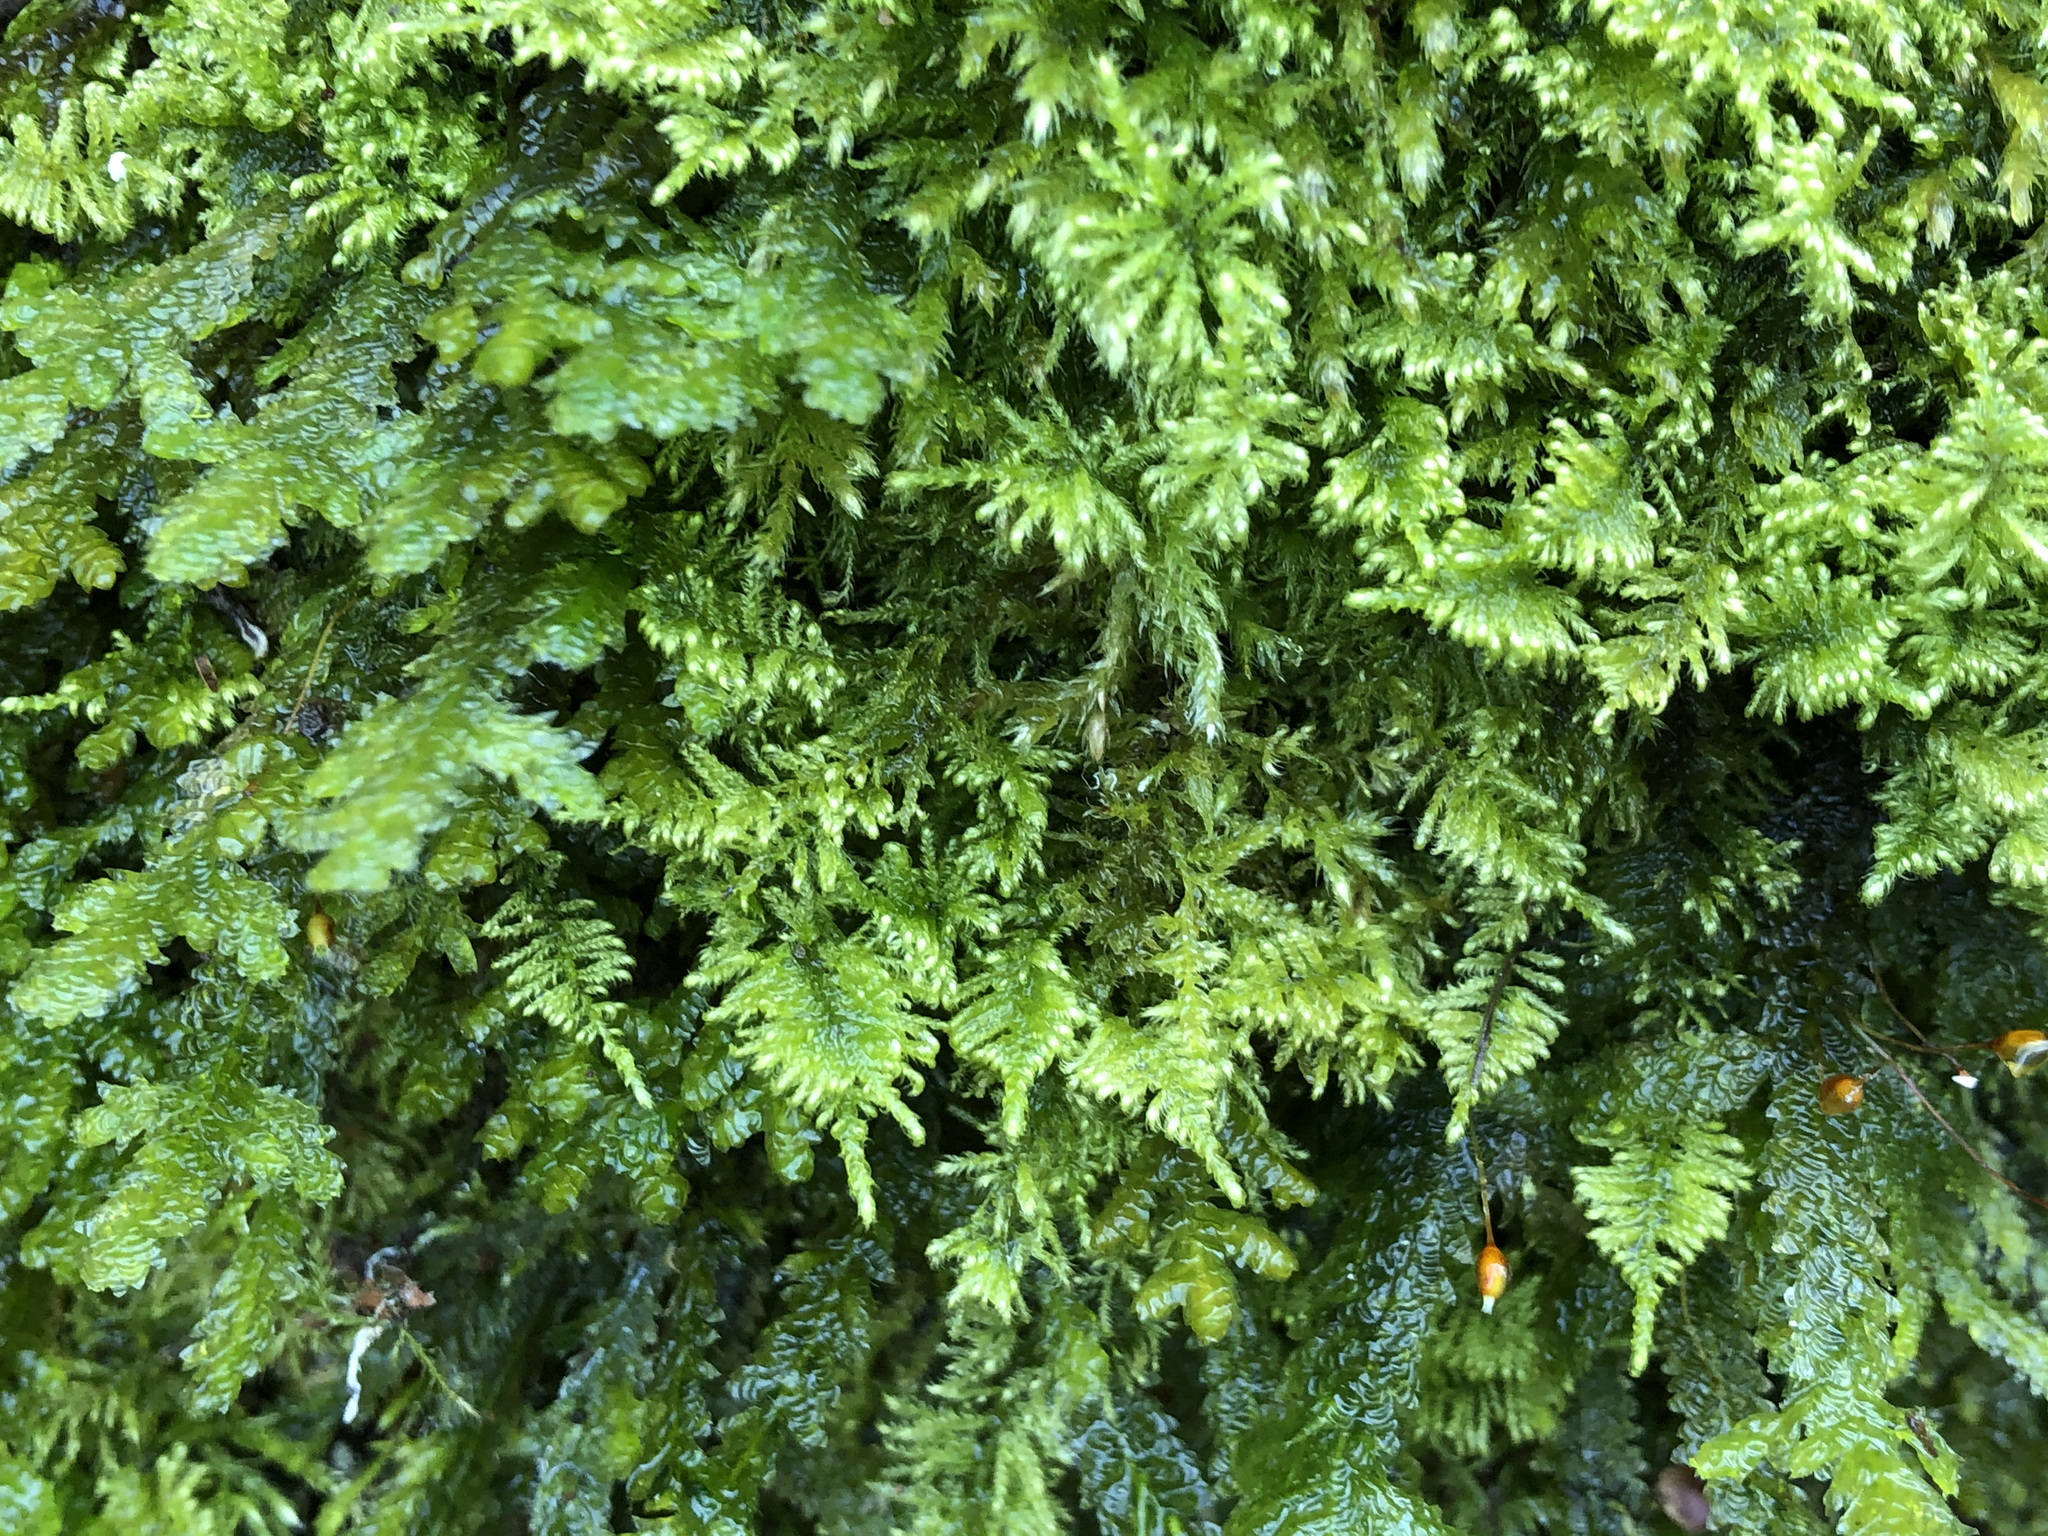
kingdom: Plantae
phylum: Bryophyta
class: Bryopsida
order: Hypnales
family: Myuriaceae
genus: Ctenidium
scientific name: Ctenidium molluscum
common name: Chalk comb-moss
